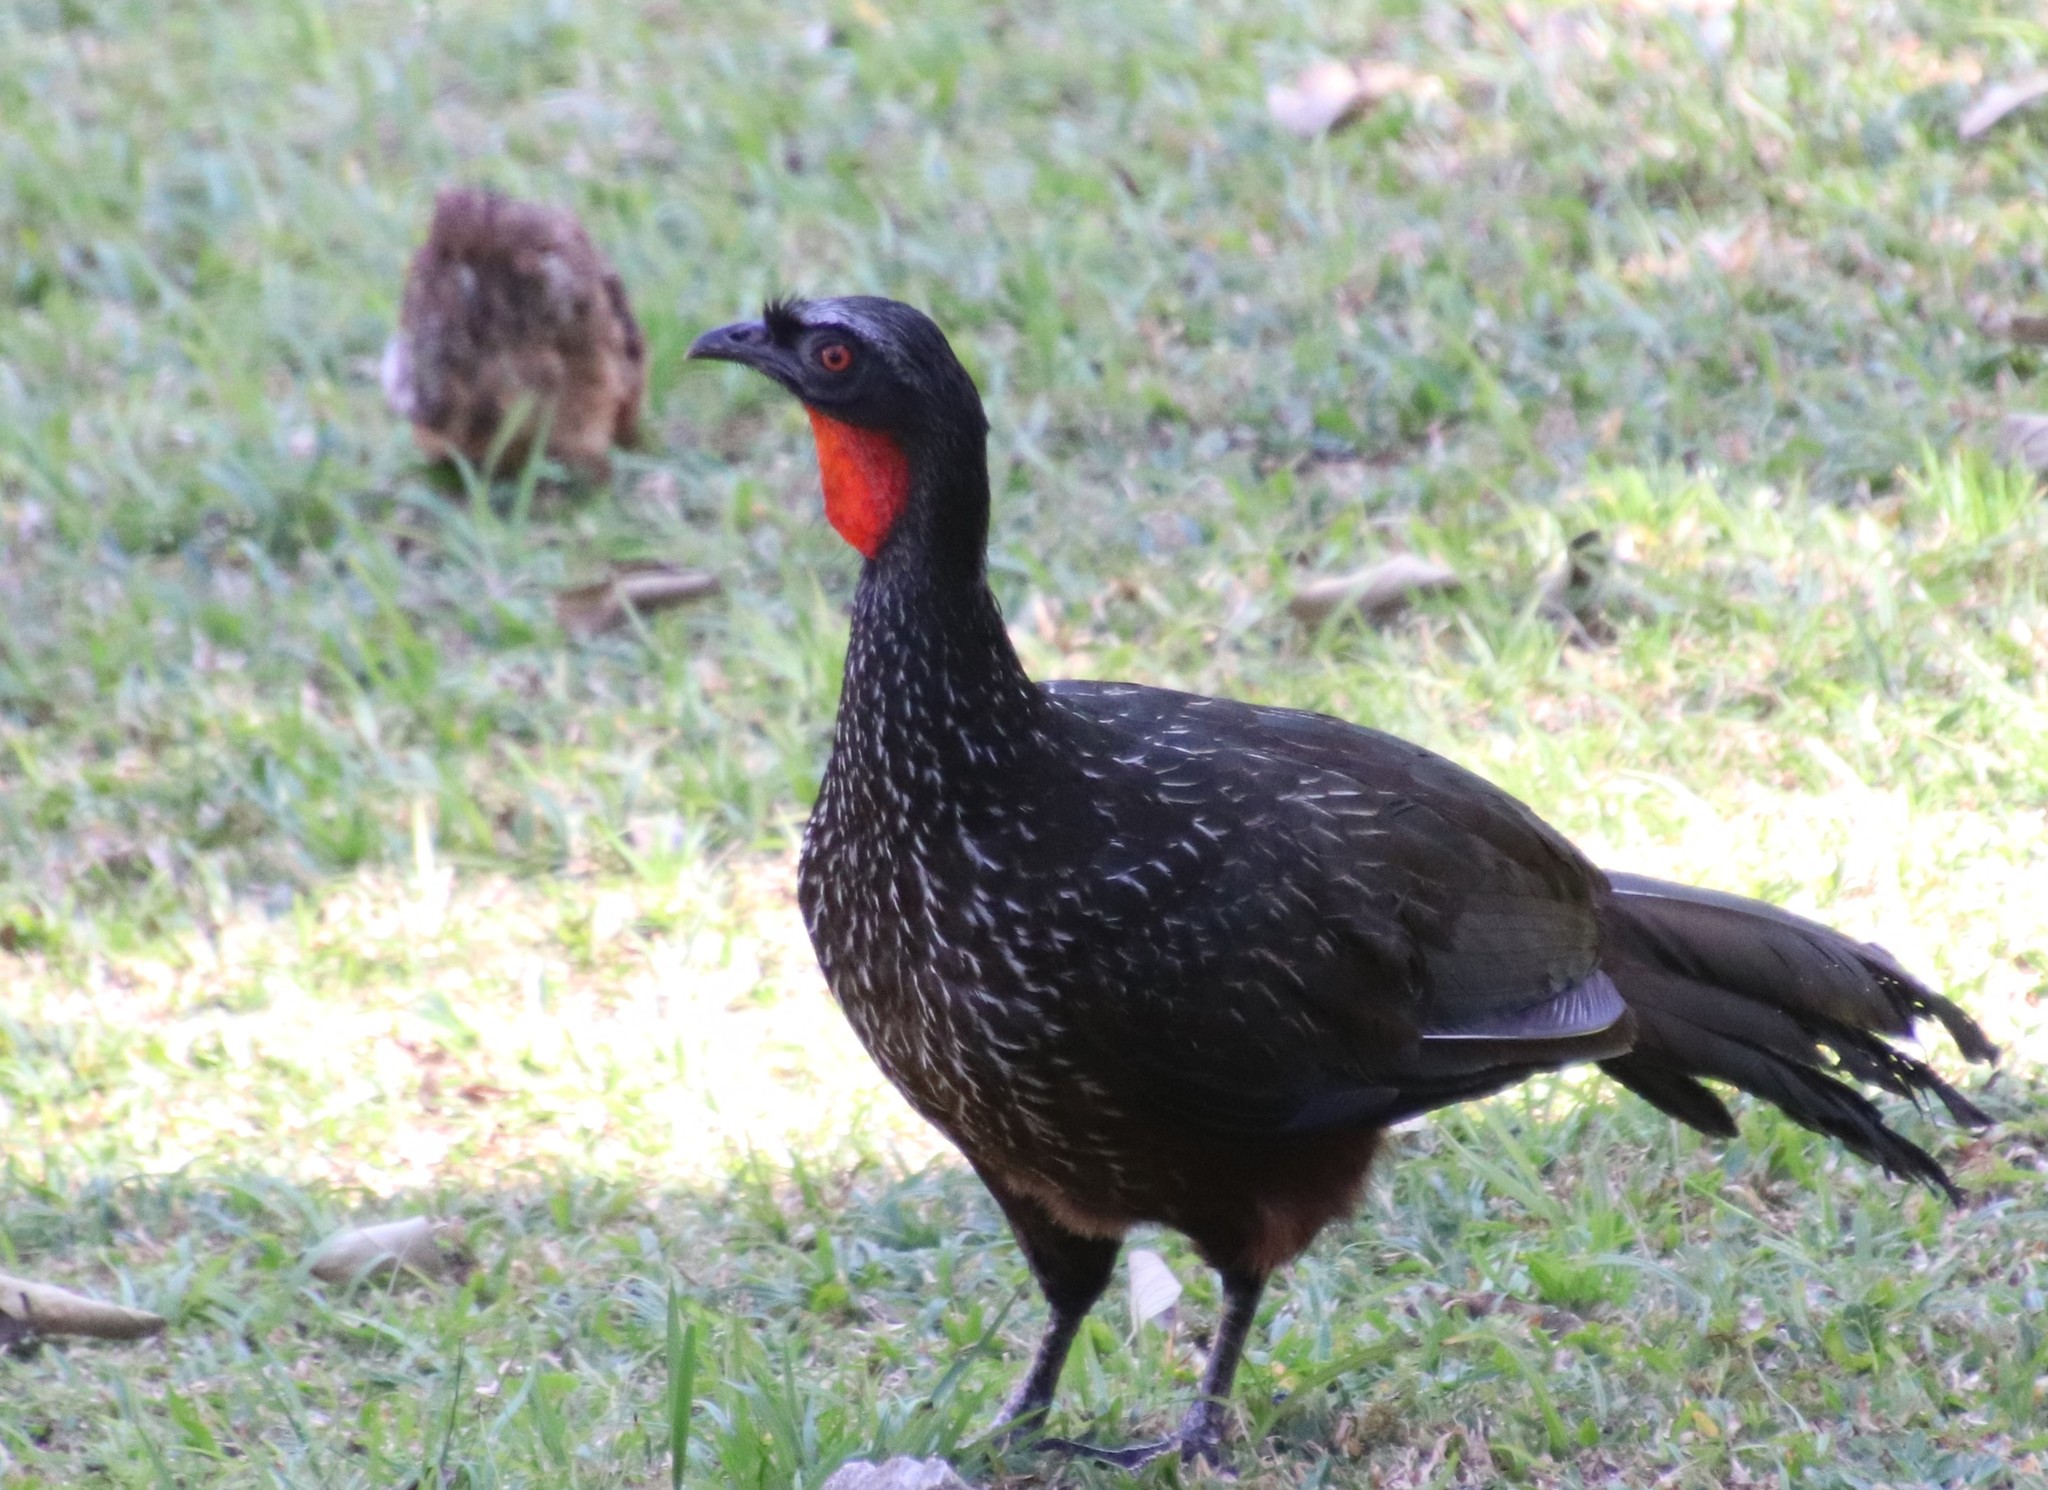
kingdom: Animalia
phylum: Chordata
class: Aves
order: Galliformes
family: Cracidae
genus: Penelope
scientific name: Penelope obscura
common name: Dusky-legged guan
